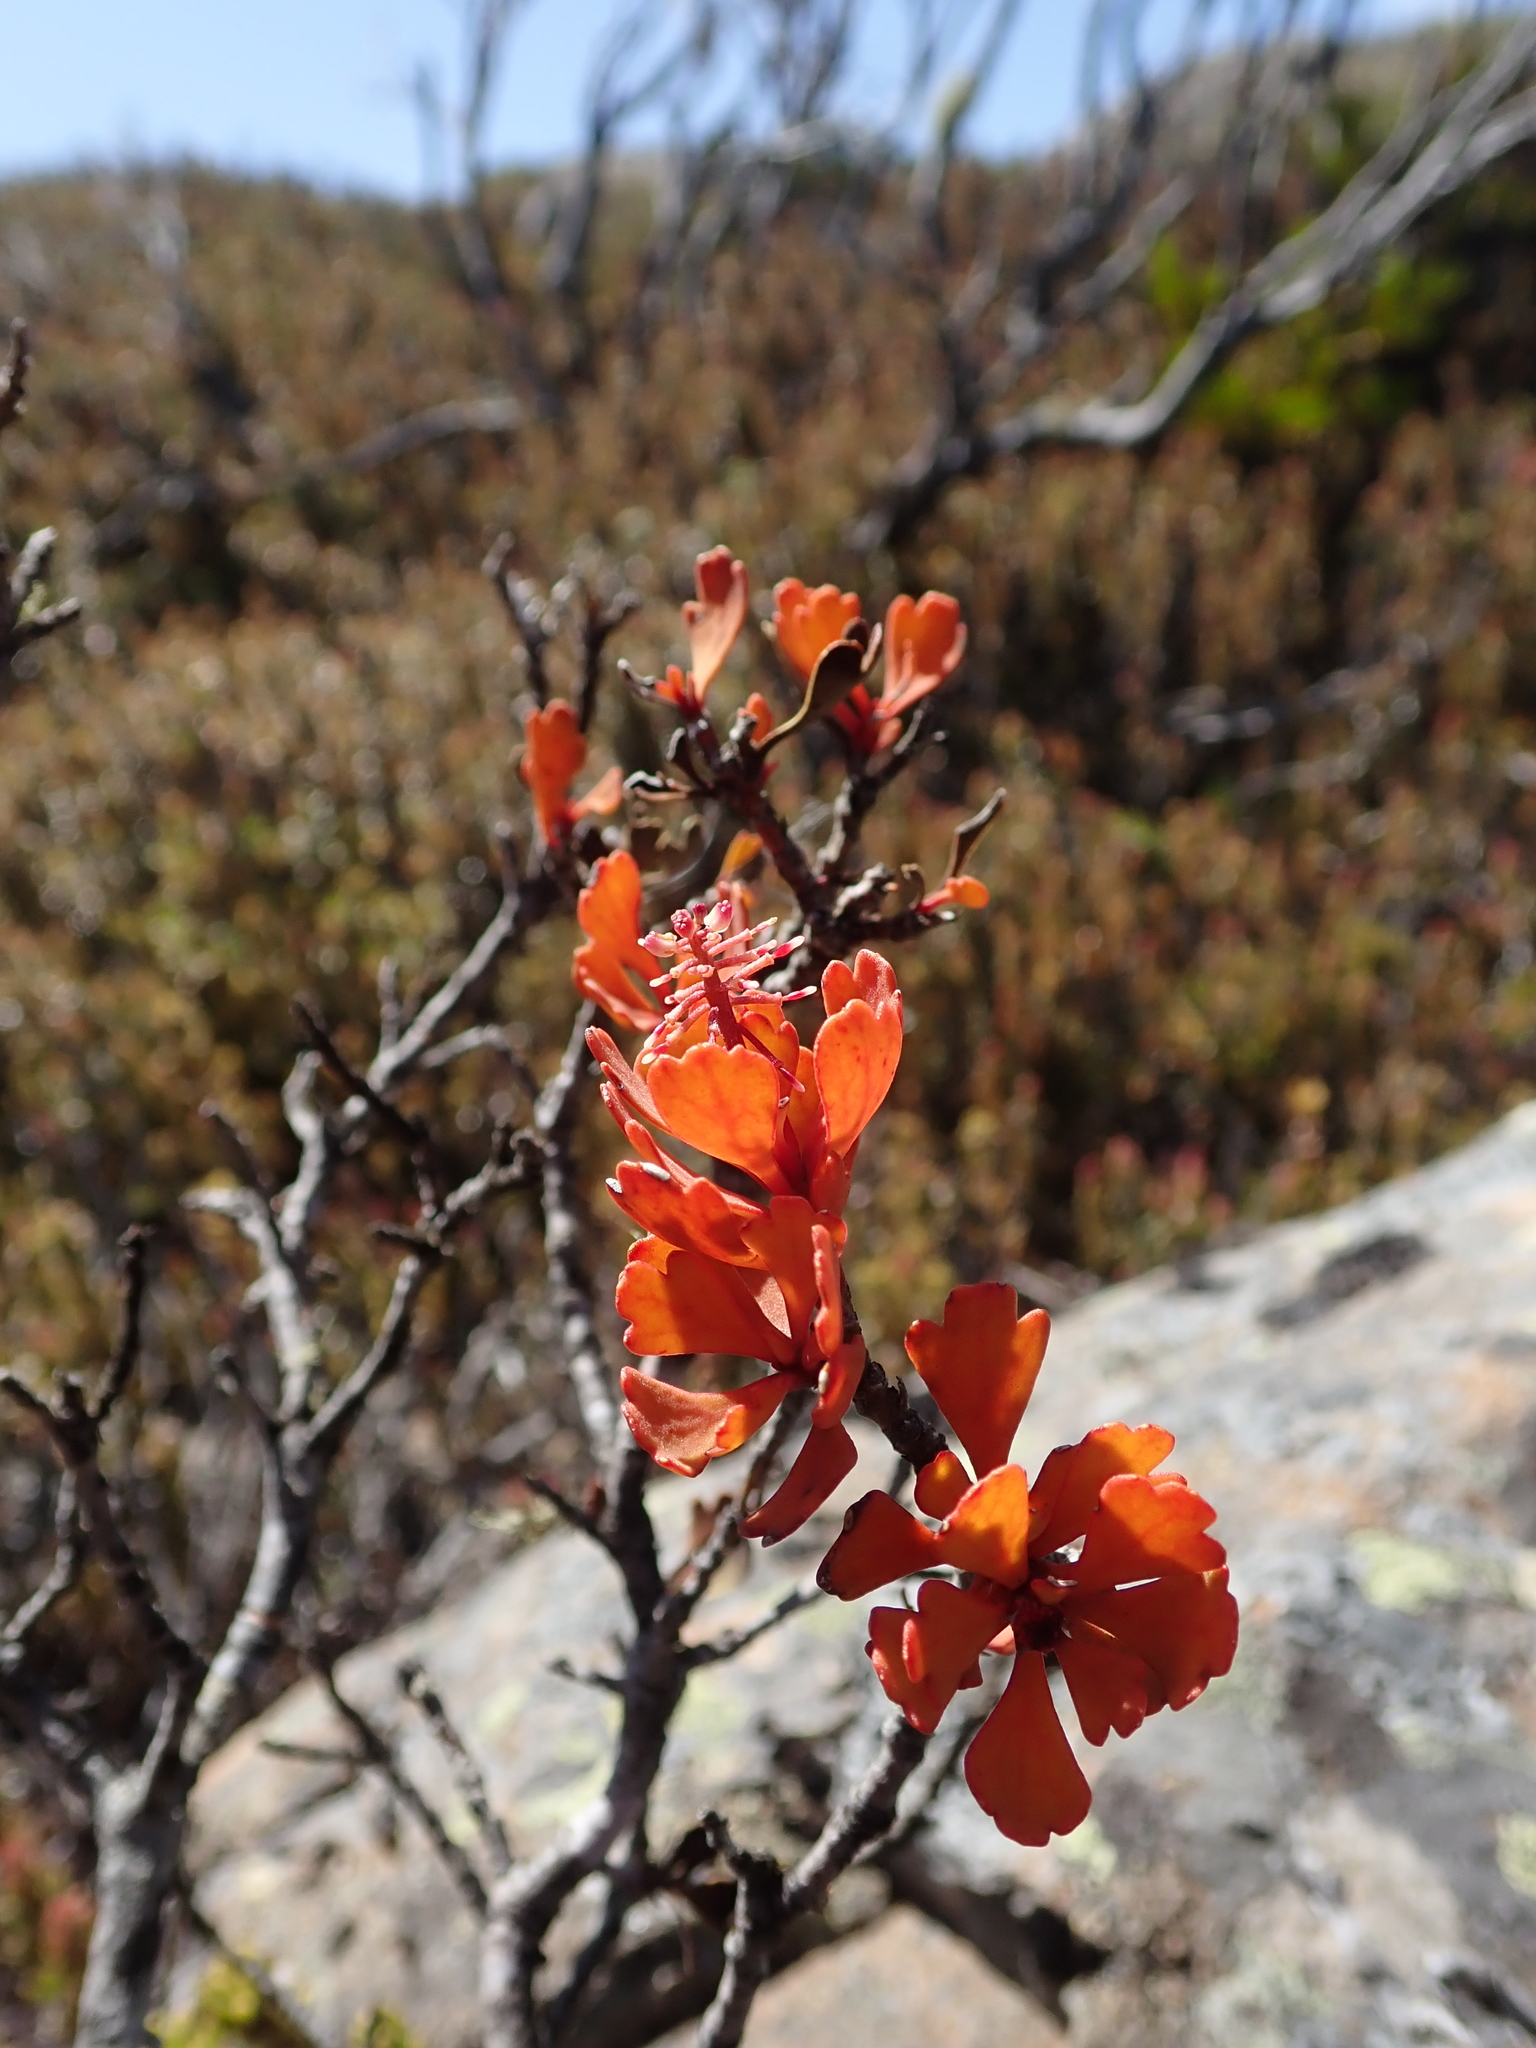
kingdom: Plantae
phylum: Tracheophyta
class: Magnoliopsida
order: Proteales
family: Proteaceae
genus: Bellendena
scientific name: Bellendena montana
